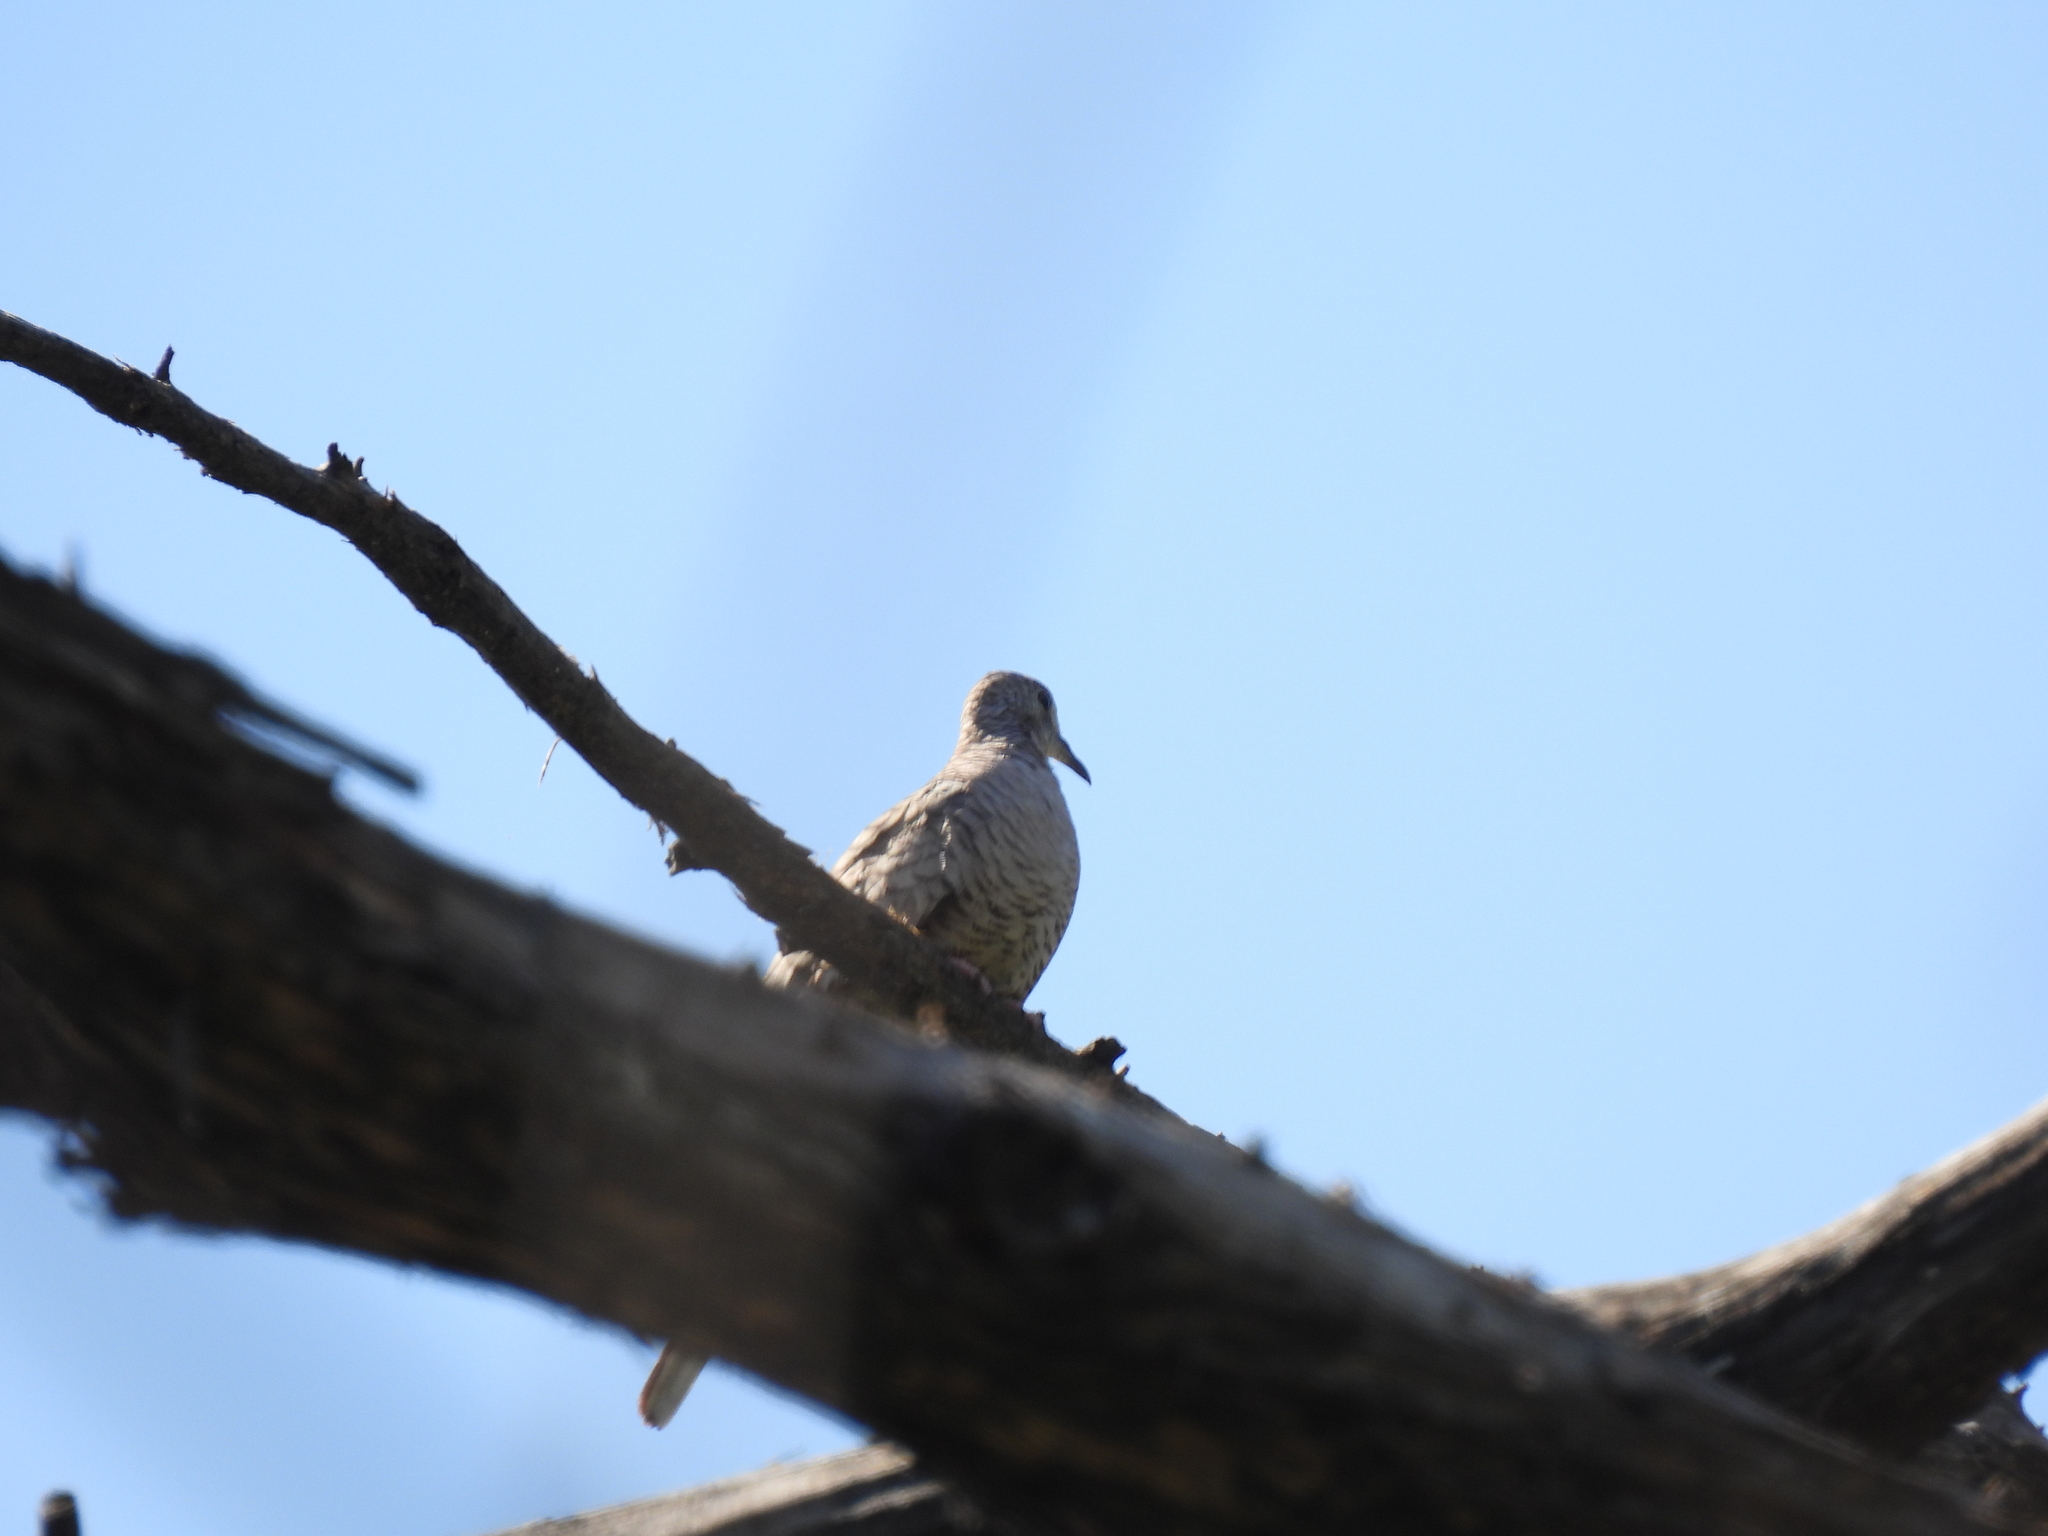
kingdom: Animalia
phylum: Chordata
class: Aves
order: Columbiformes
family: Columbidae
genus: Columbina
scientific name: Columbina inca
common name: Inca dove
